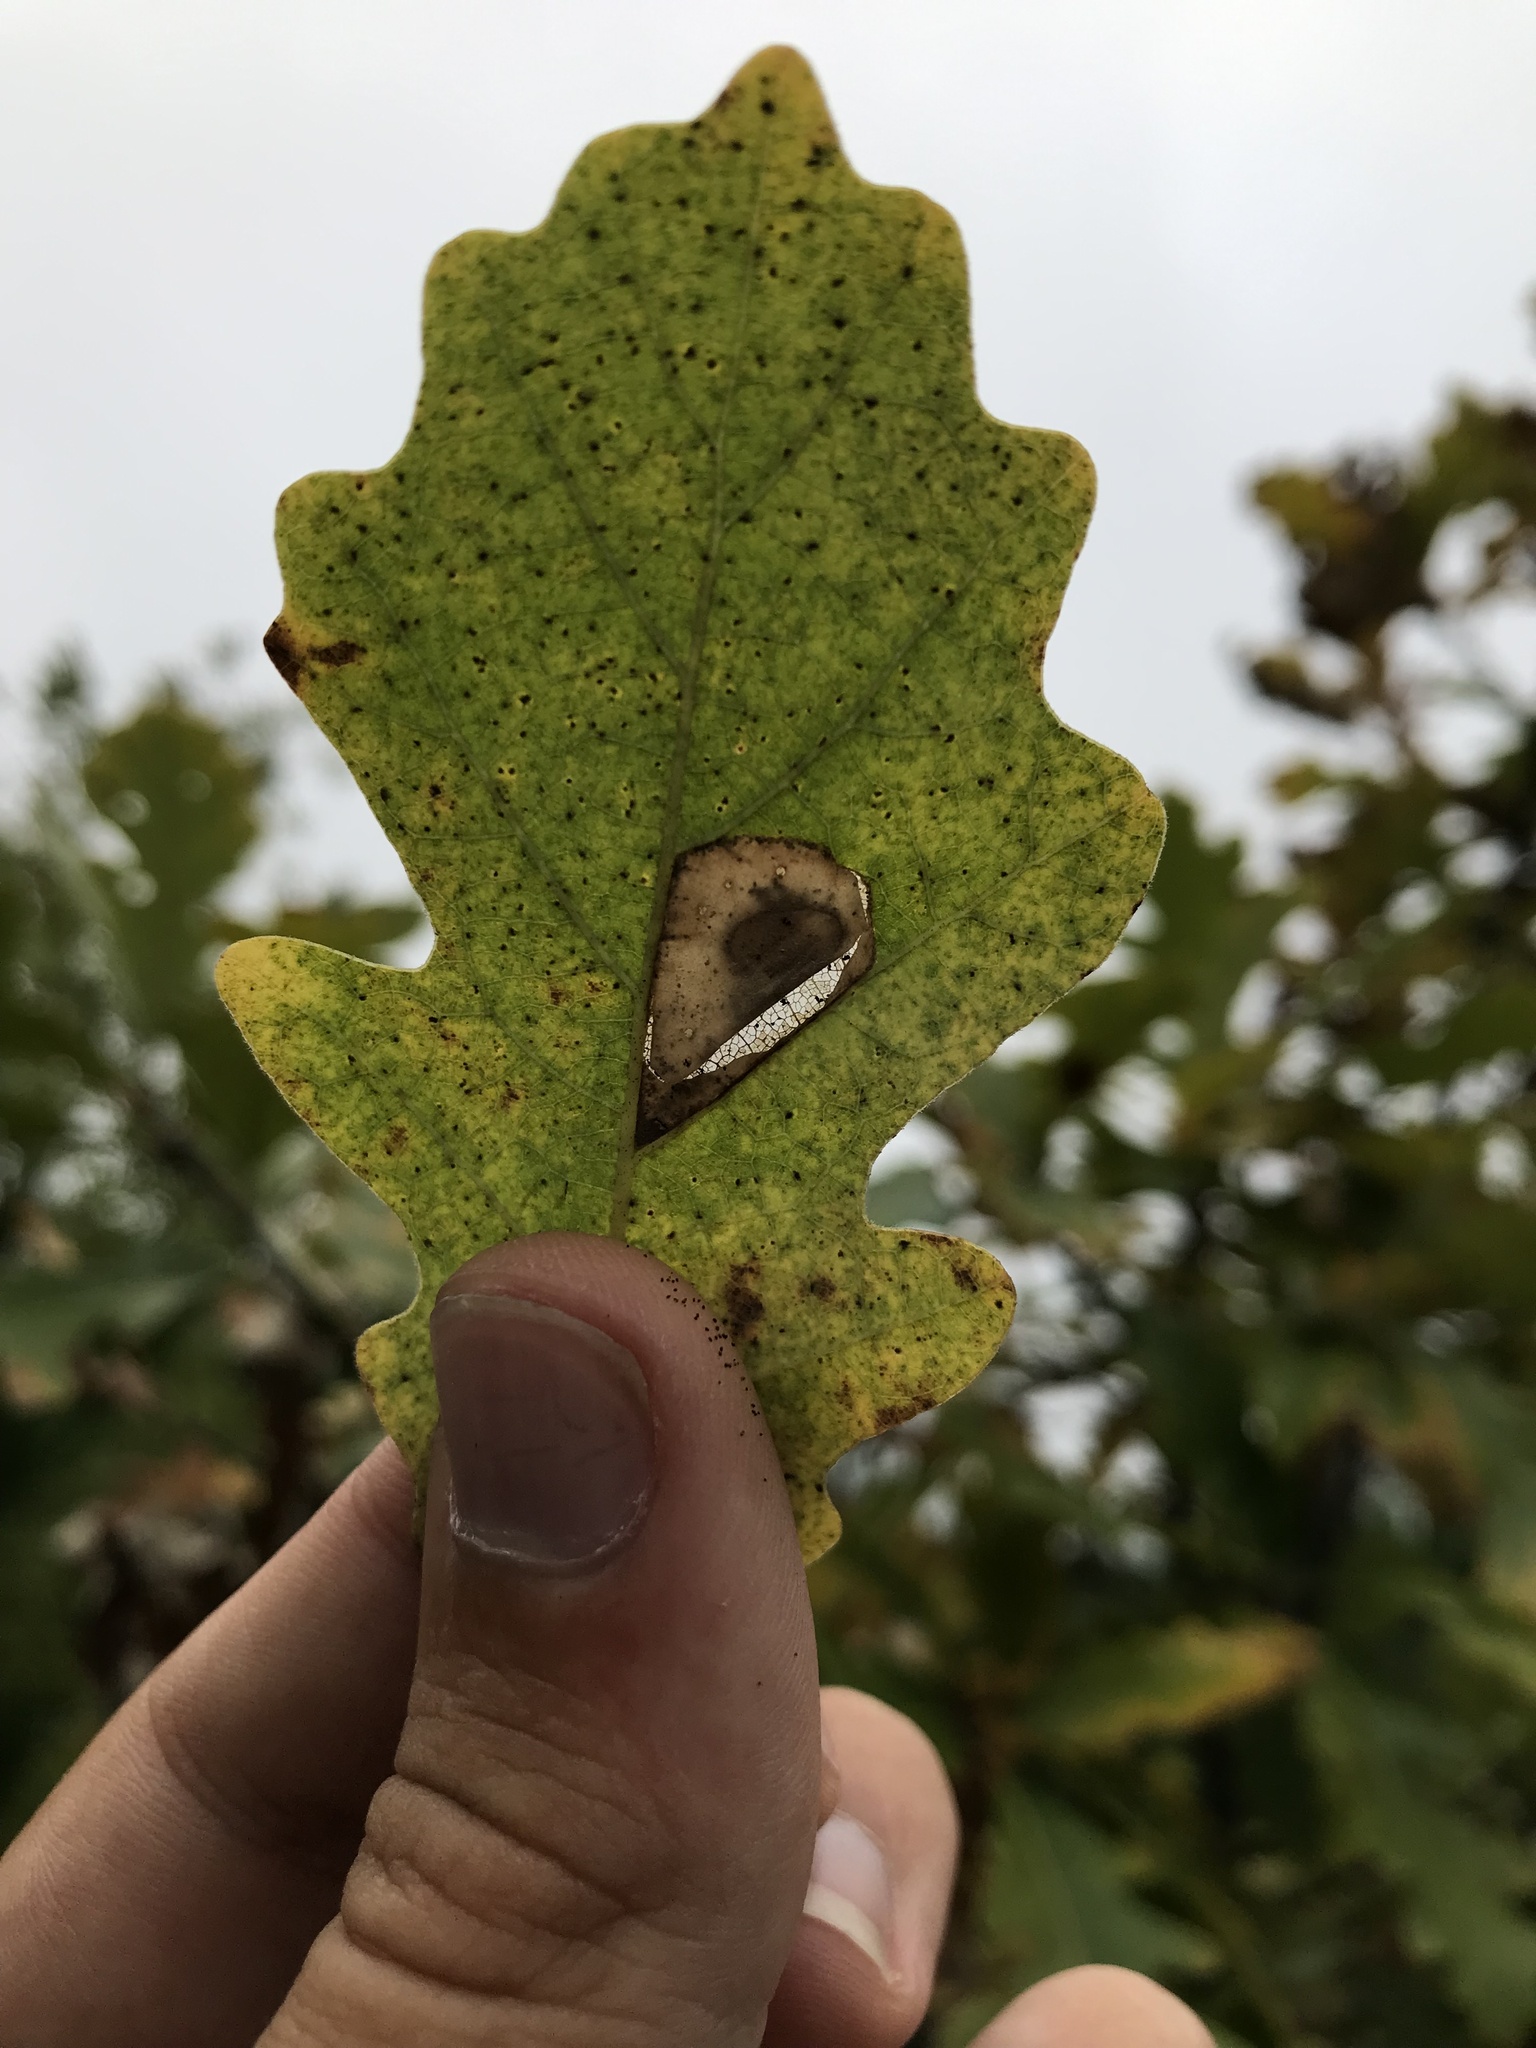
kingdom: Animalia
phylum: Arthropoda
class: Insecta
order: Lepidoptera
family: Gracillariidae
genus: Phyllonorycter
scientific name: Phyllonorycter basistrigella
